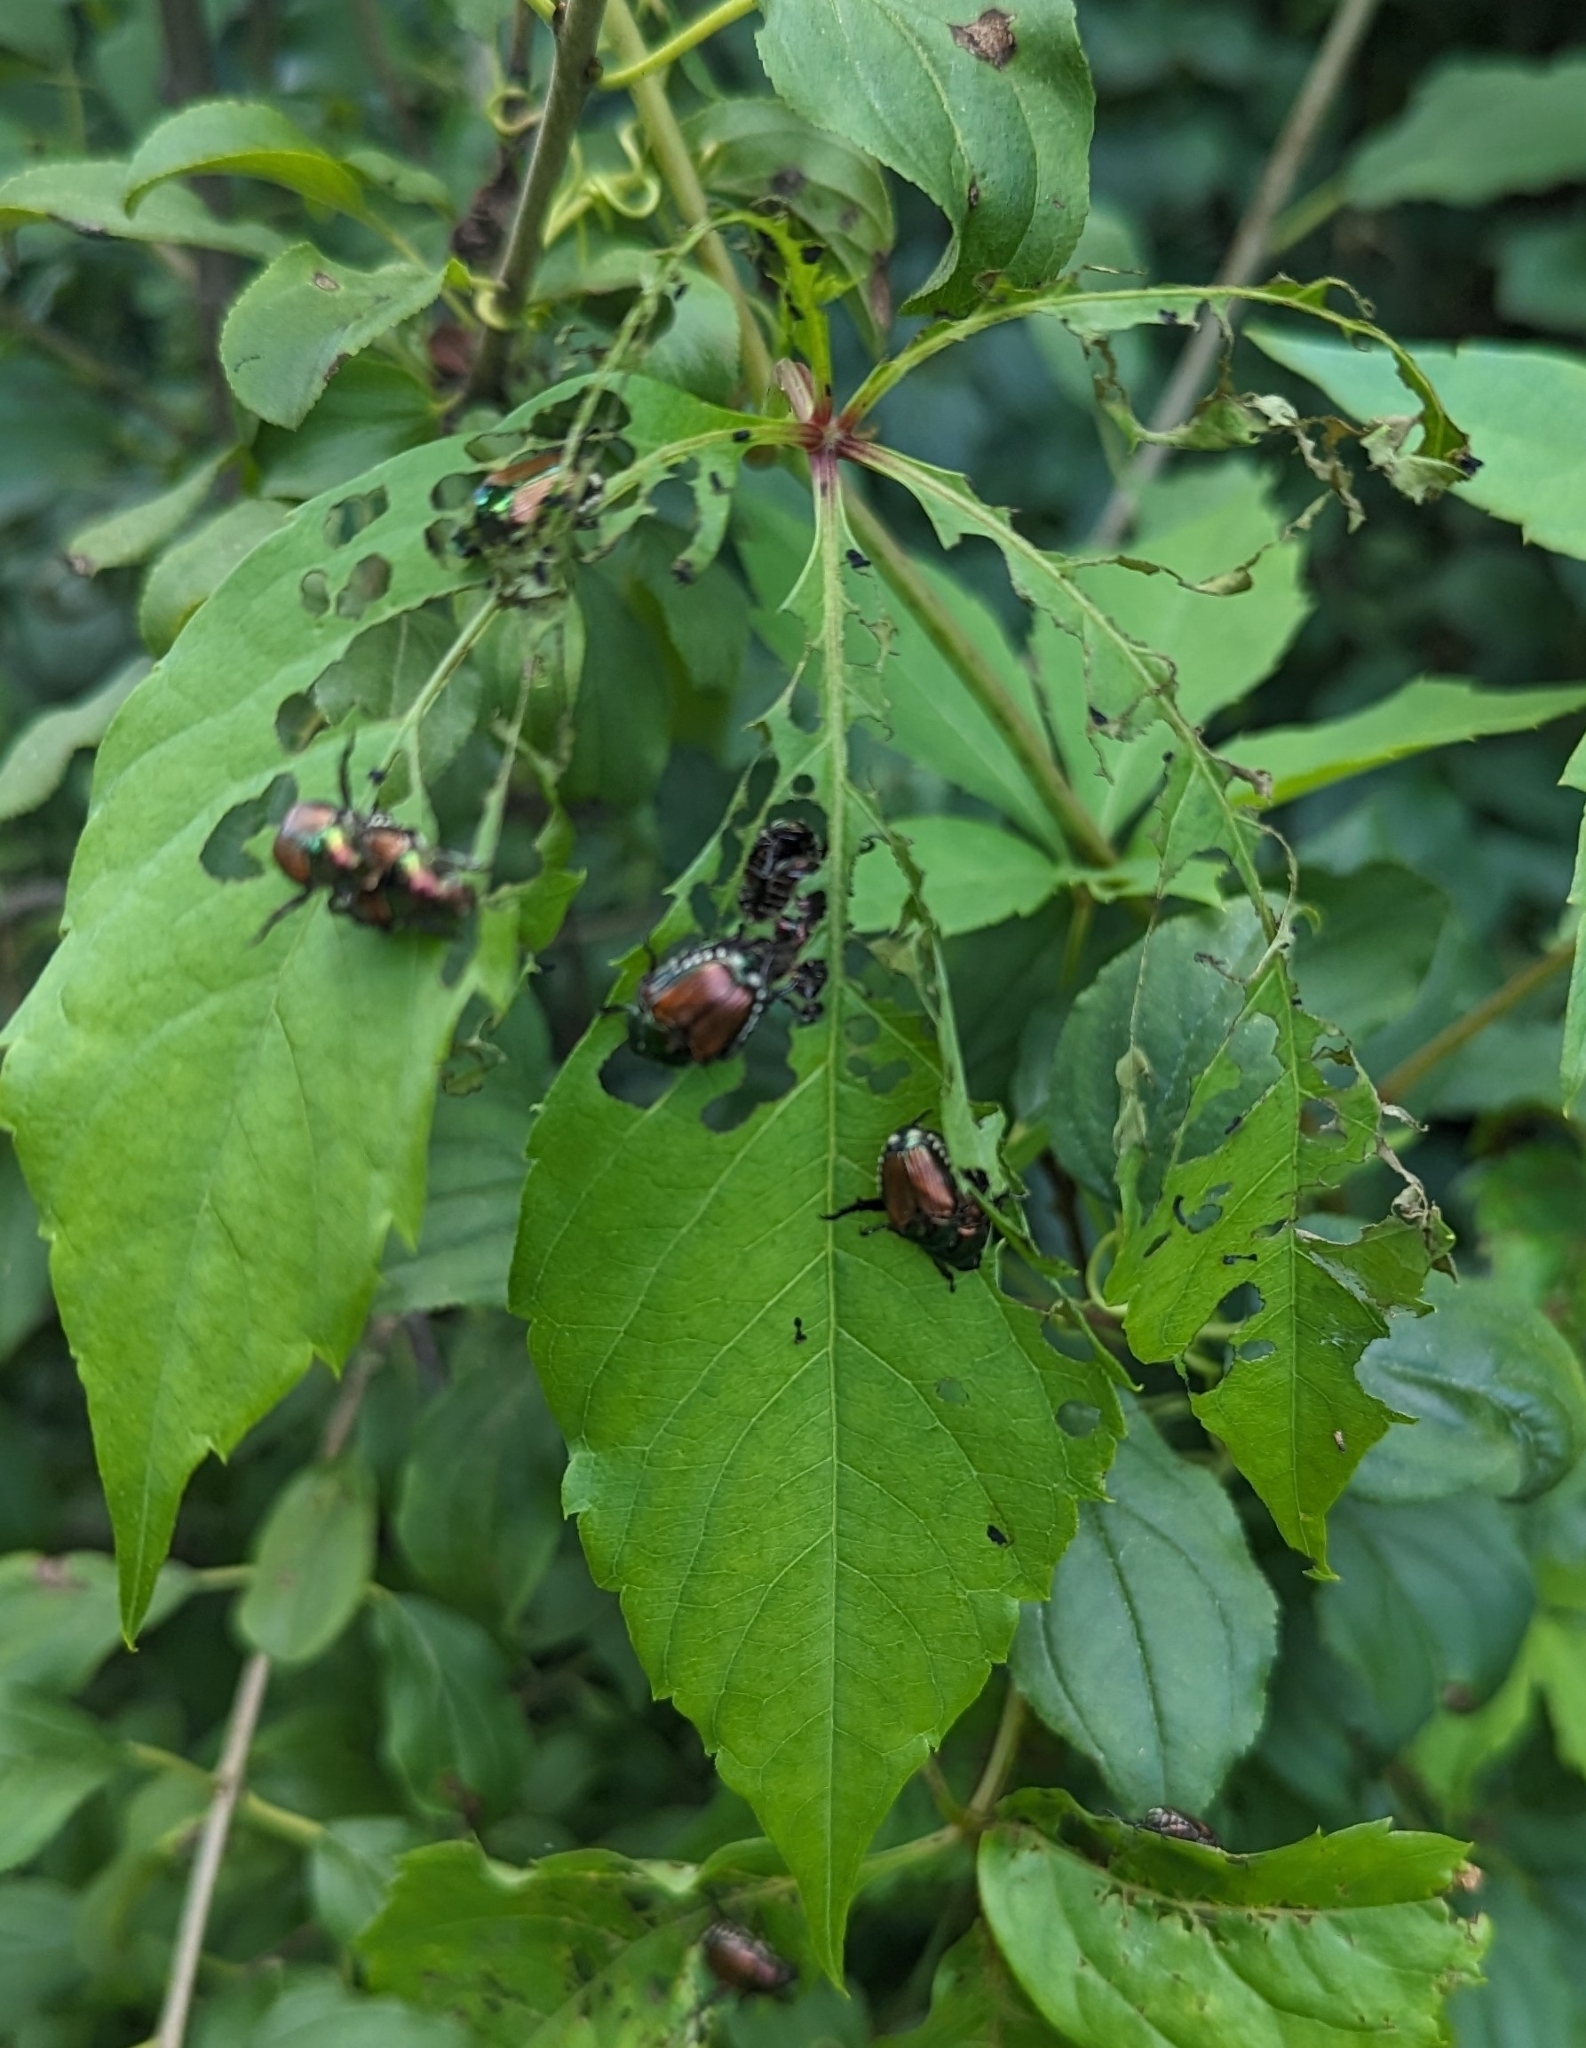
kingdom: Animalia
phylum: Arthropoda
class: Insecta
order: Coleoptera
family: Scarabaeidae
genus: Popillia
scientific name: Popillia japonica
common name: Japanese beetle
